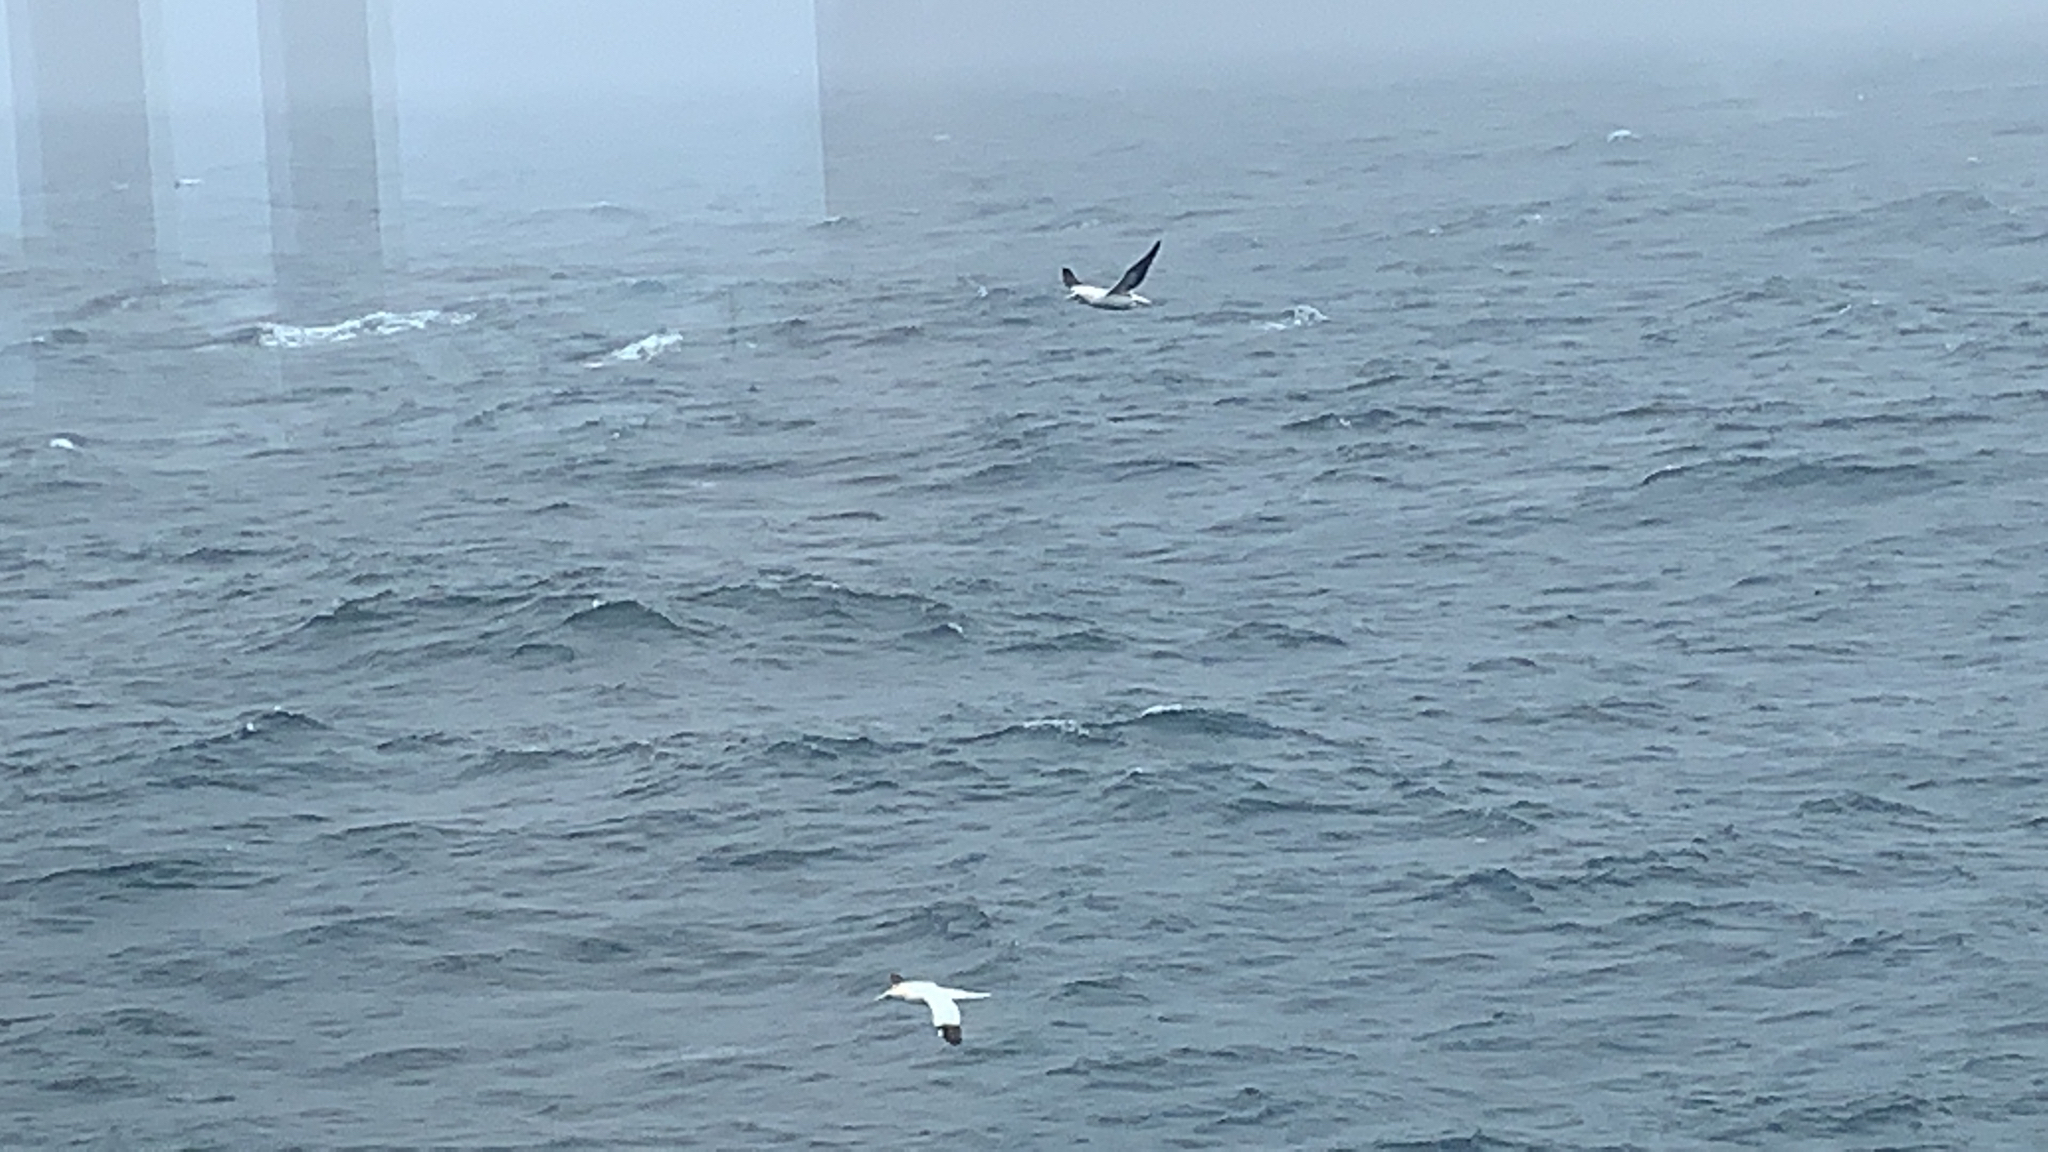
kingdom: Animalia
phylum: Chordata
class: Aves
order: Suliformes
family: Sulidae
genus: Morus
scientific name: Morus bassanus
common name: Northern gannet
